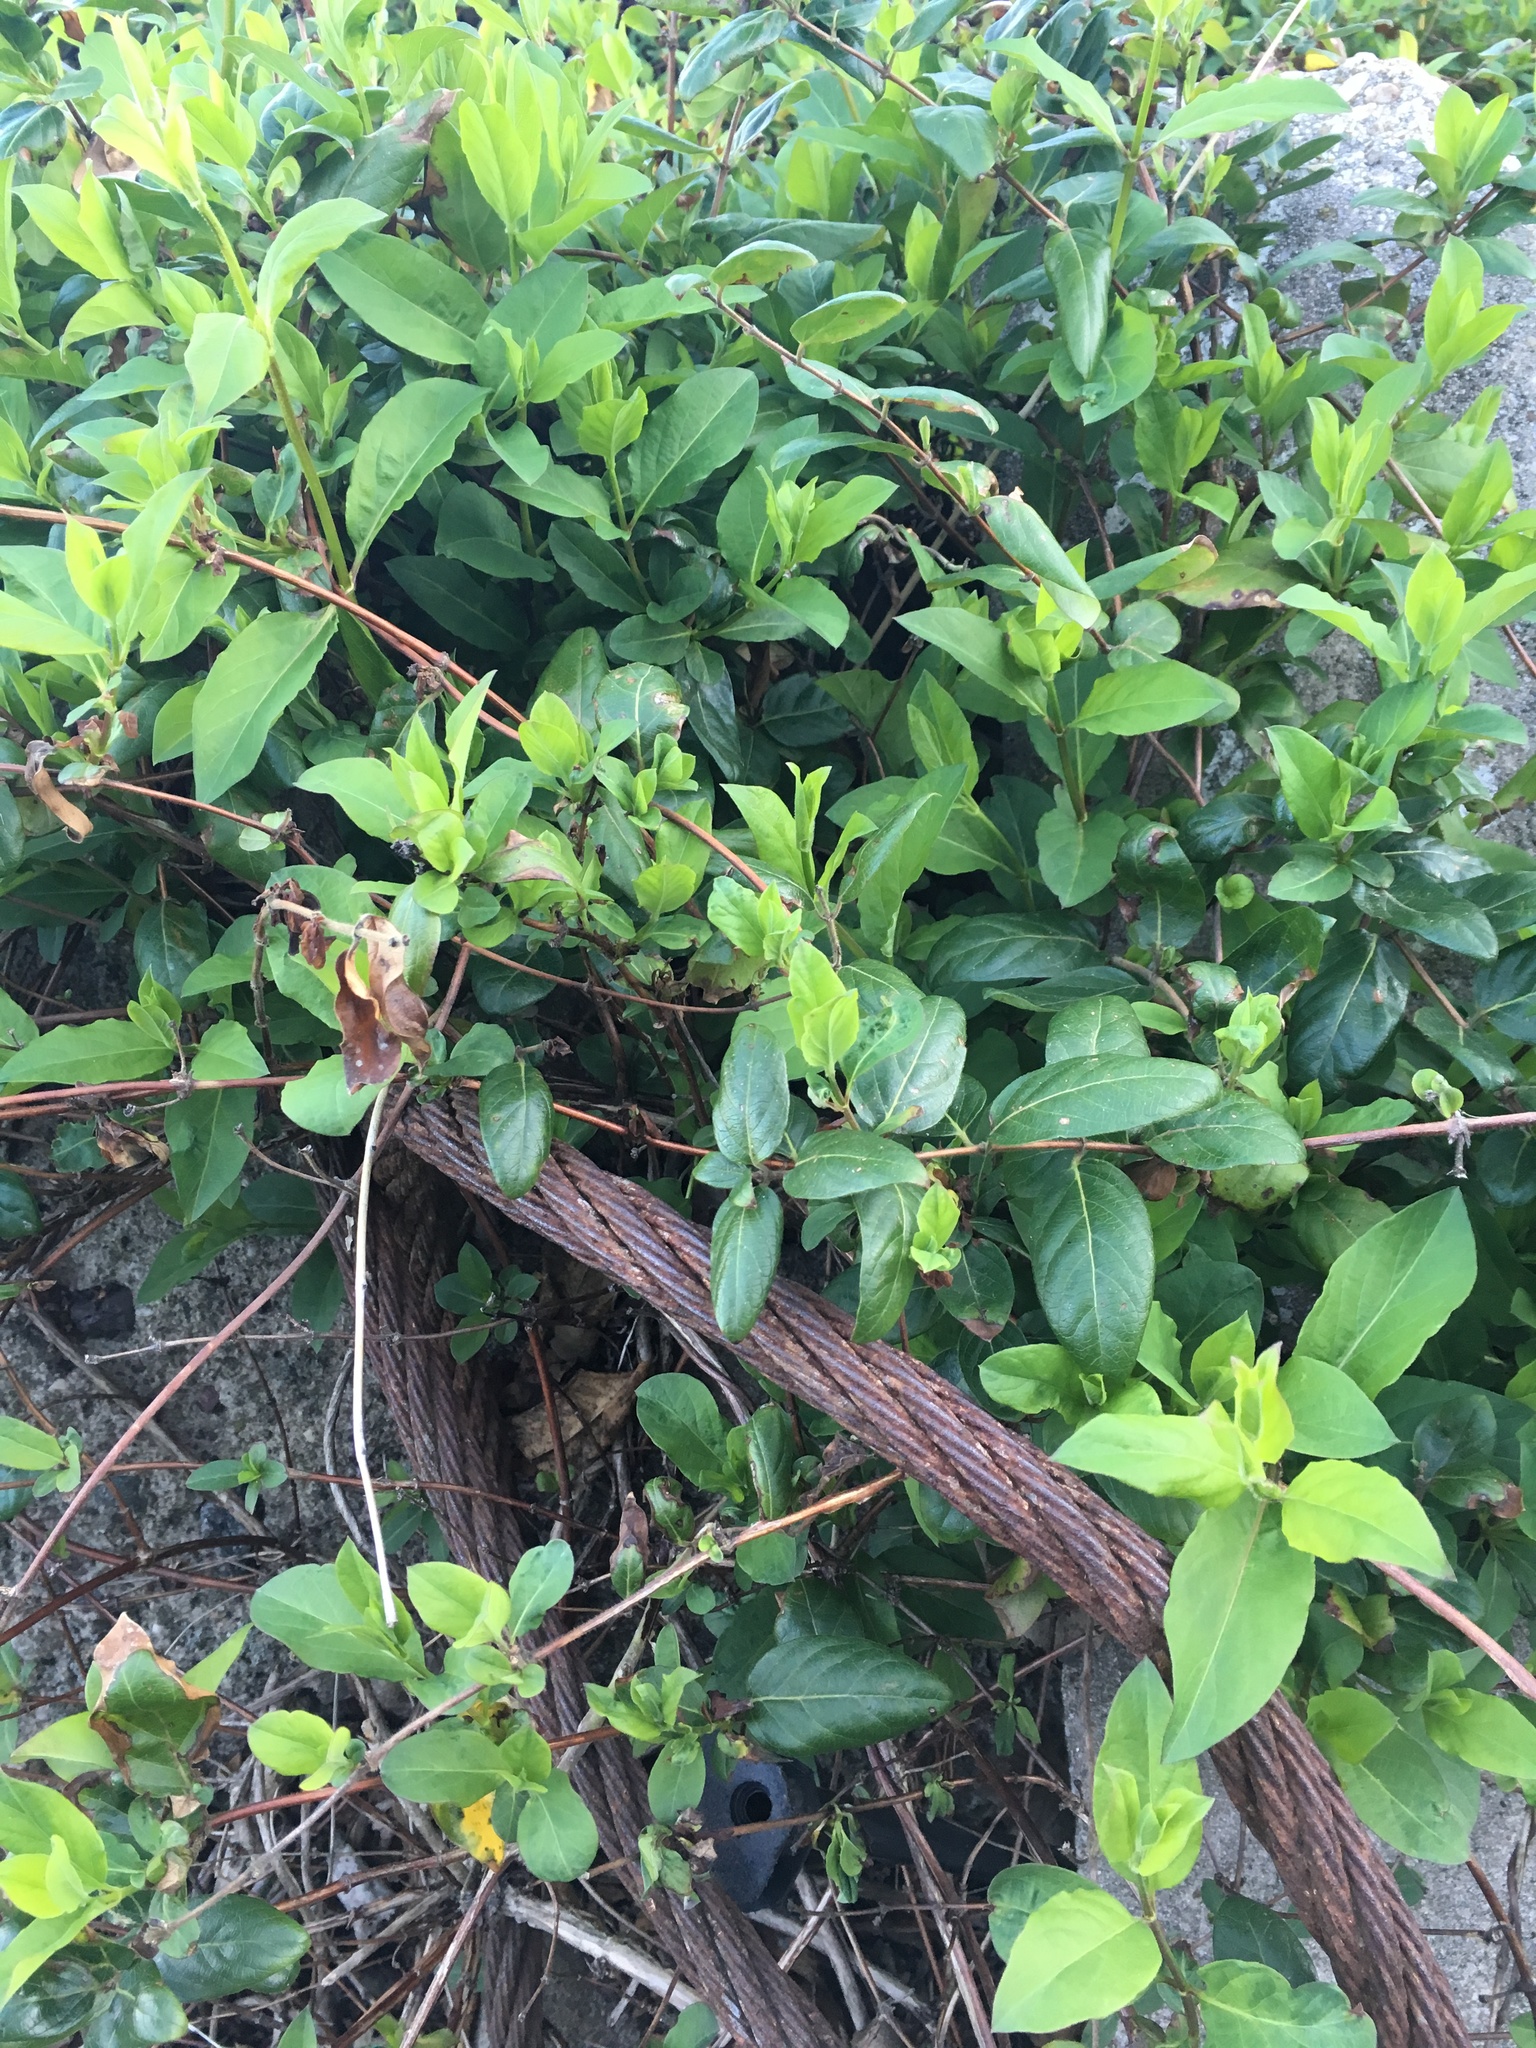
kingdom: Plantae
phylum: Tracheophyta
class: Magnoliopsida
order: Dipsacales
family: Caprifoliaceae
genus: Lonicera
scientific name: Lonicera japonica
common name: Japanese honeysuckle
